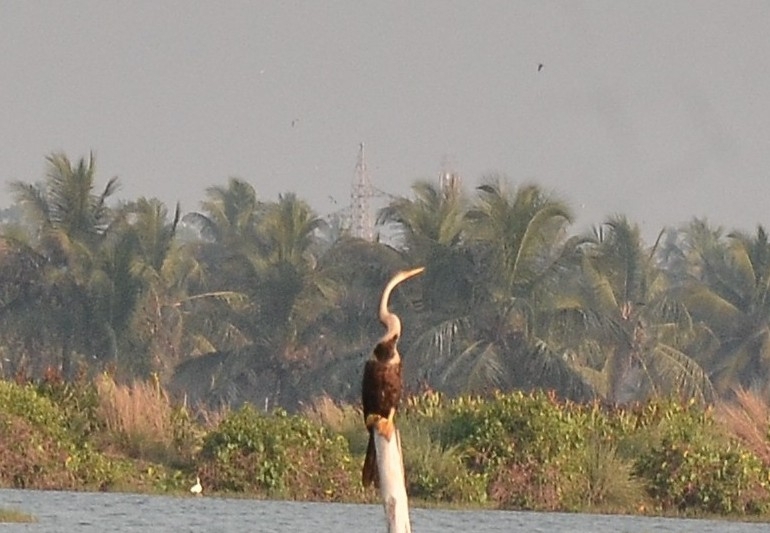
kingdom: Animalia
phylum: Chordata
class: Aves
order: Suliformes
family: Anhingidae
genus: Anhinga
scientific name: Anhinga melanogaster
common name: Oriental darter
